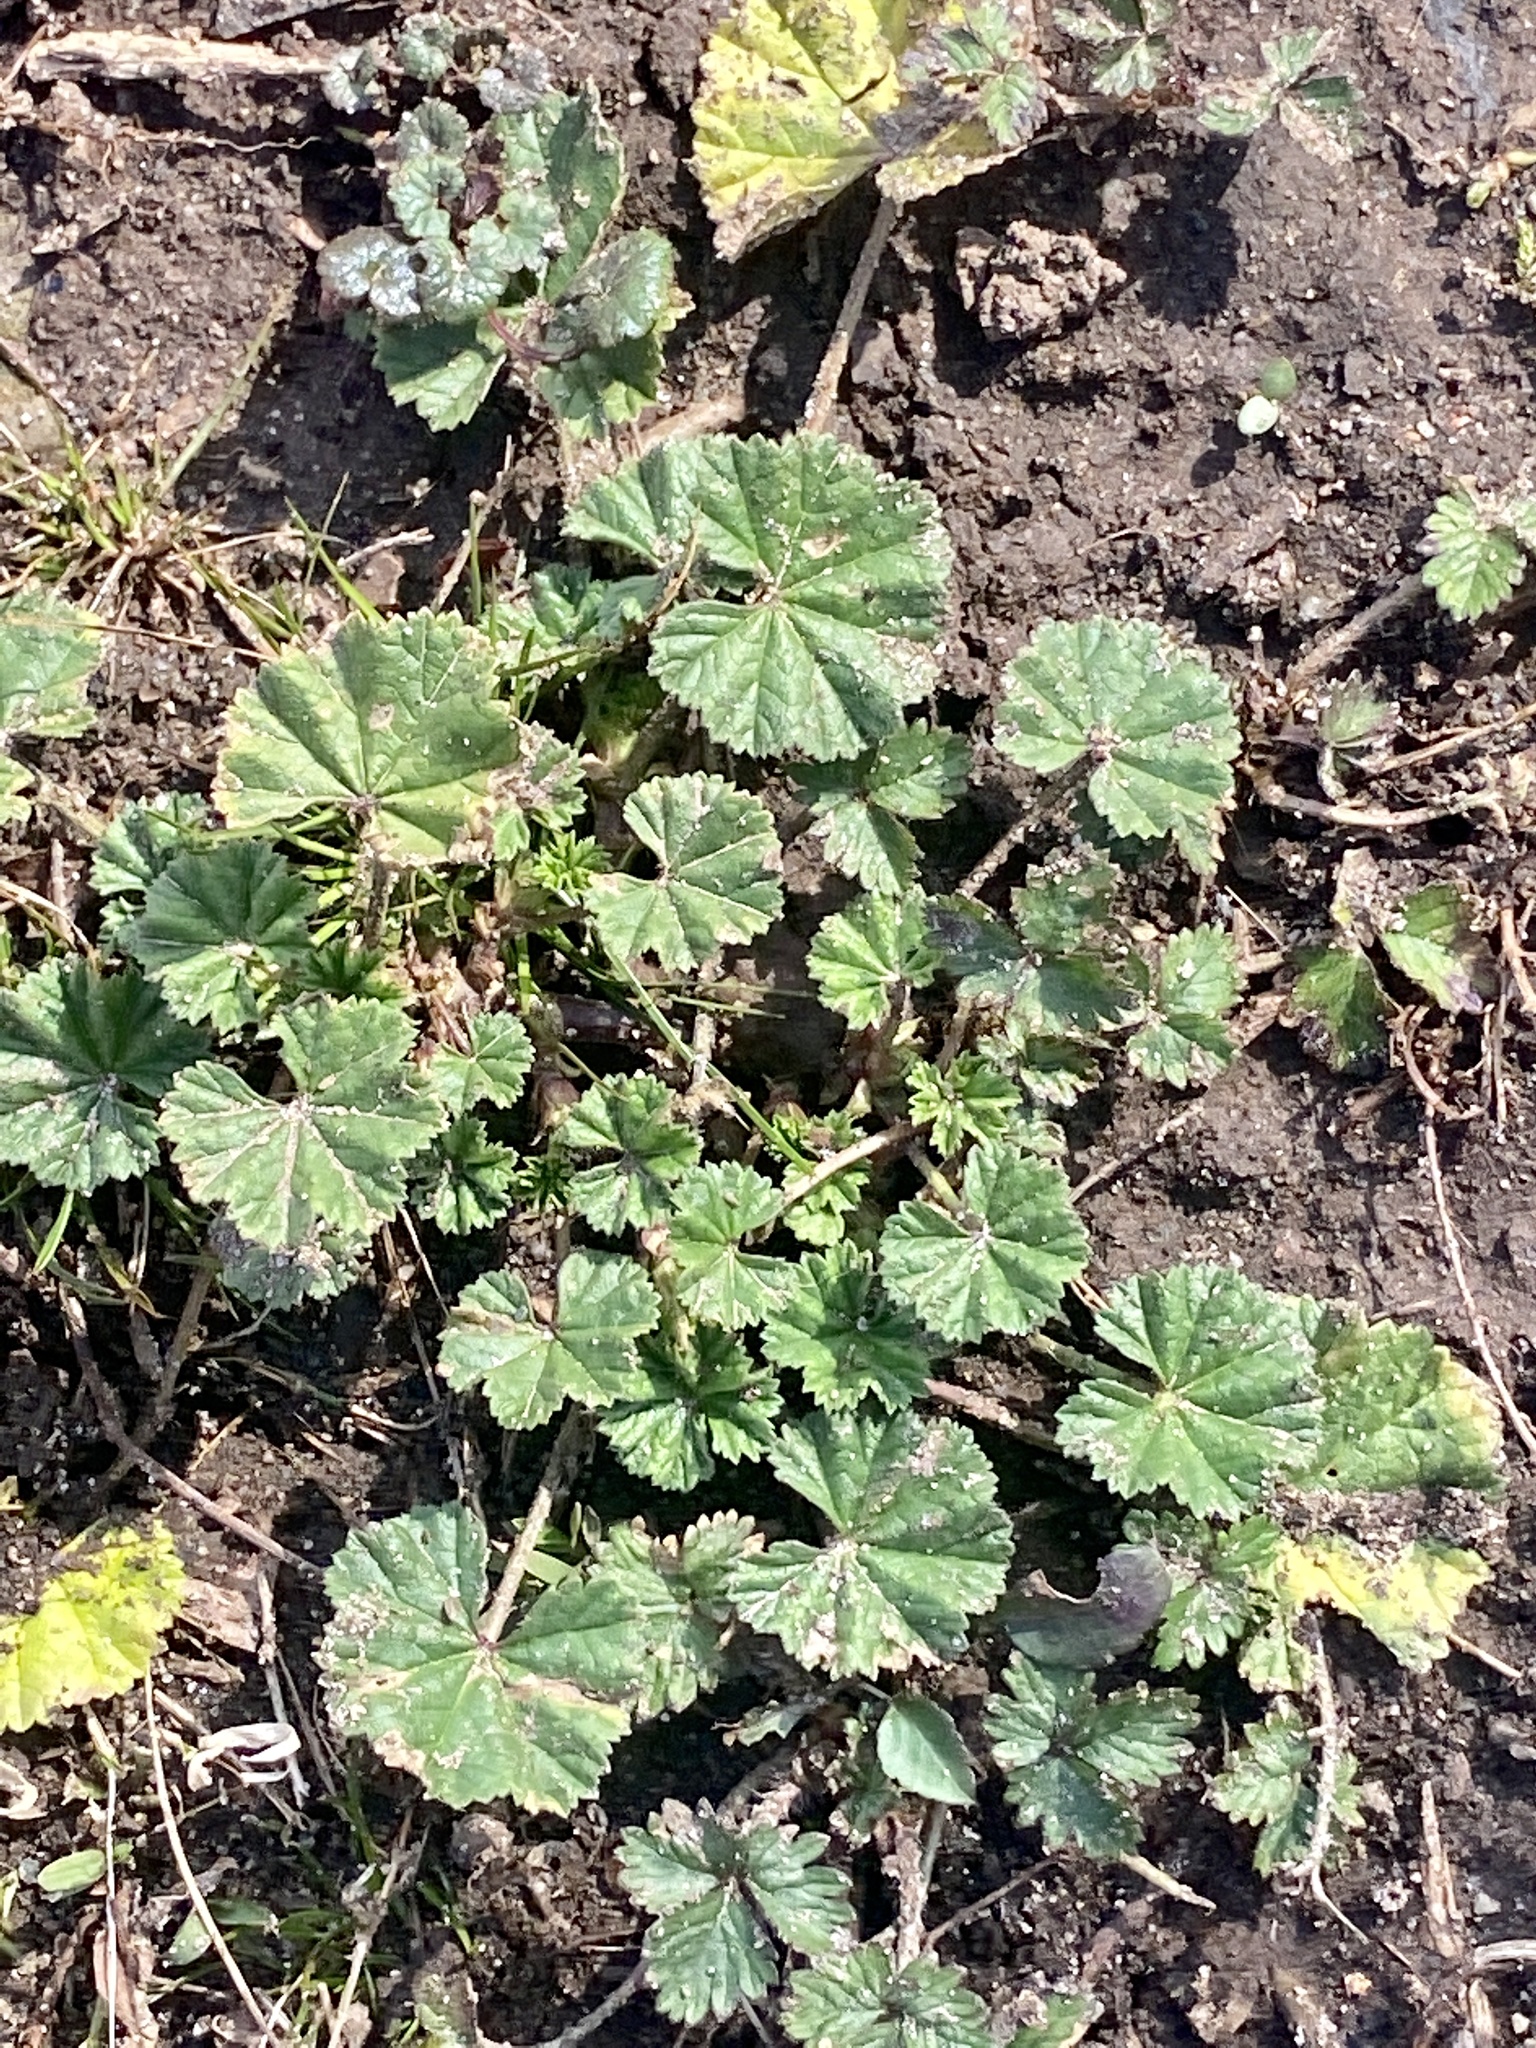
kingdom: Plantae
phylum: Tracheophyta
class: Magnoliopsida
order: Malvales
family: Malvaceae
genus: Malva
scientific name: Malva neglecta
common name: Common mallow
